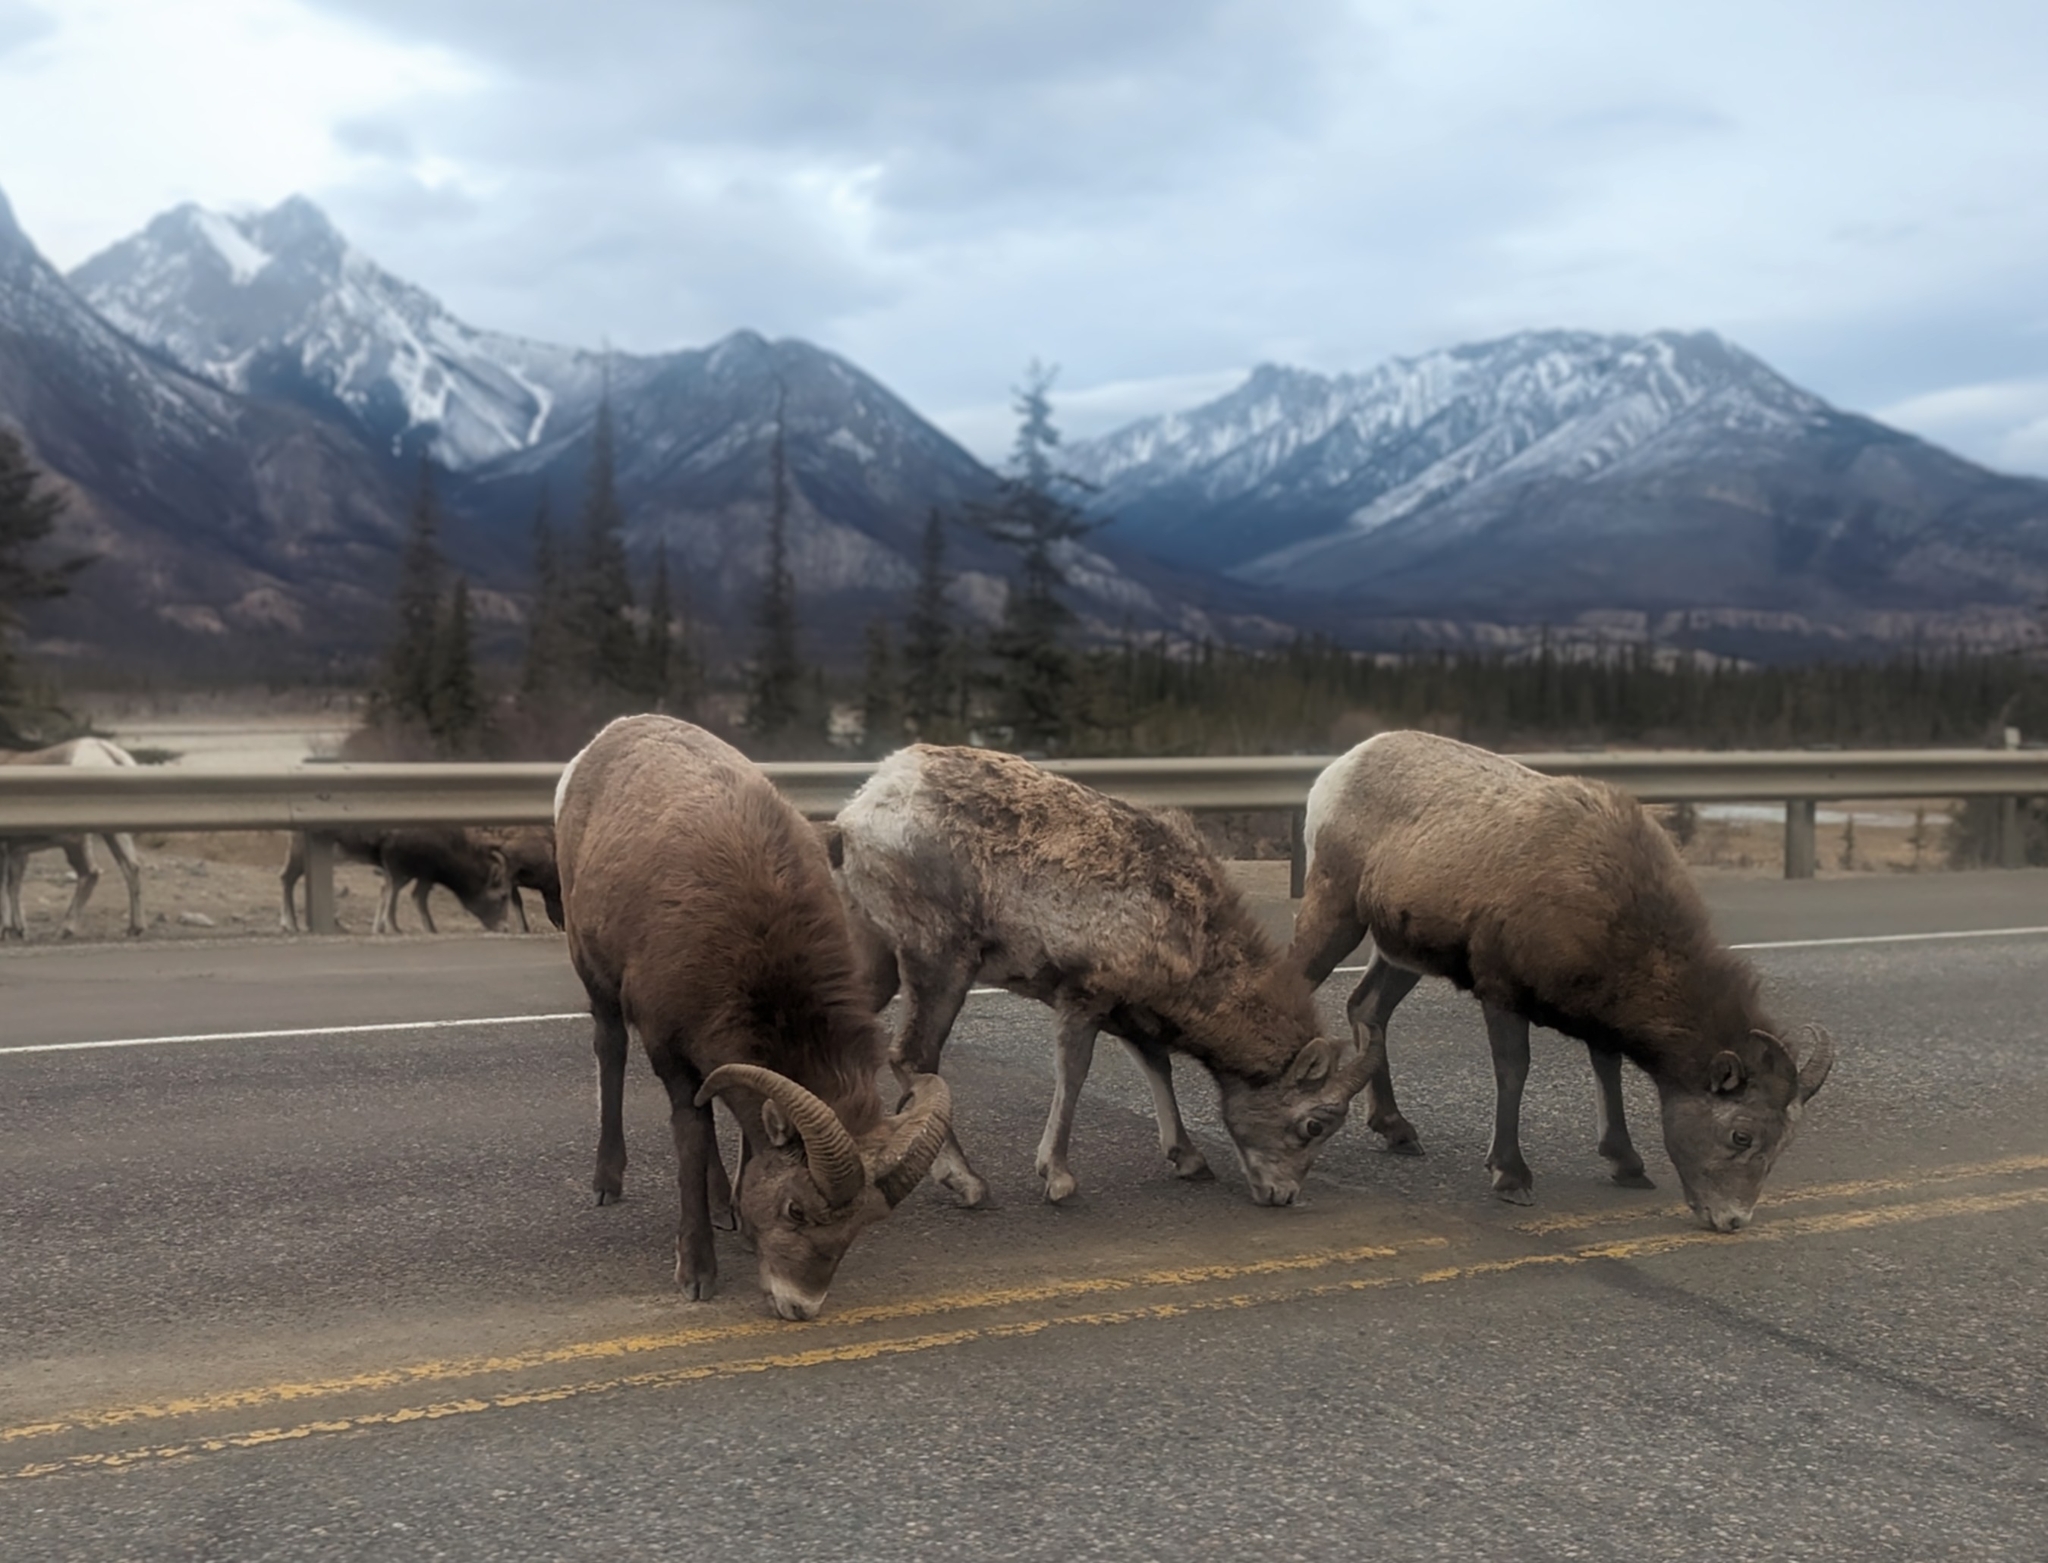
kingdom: Animalia
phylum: Chordata
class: Mammalia
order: Artiodactyla
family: Bovidae
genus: Ovis
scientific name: Ovis canadensis
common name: Bighorn sheep
